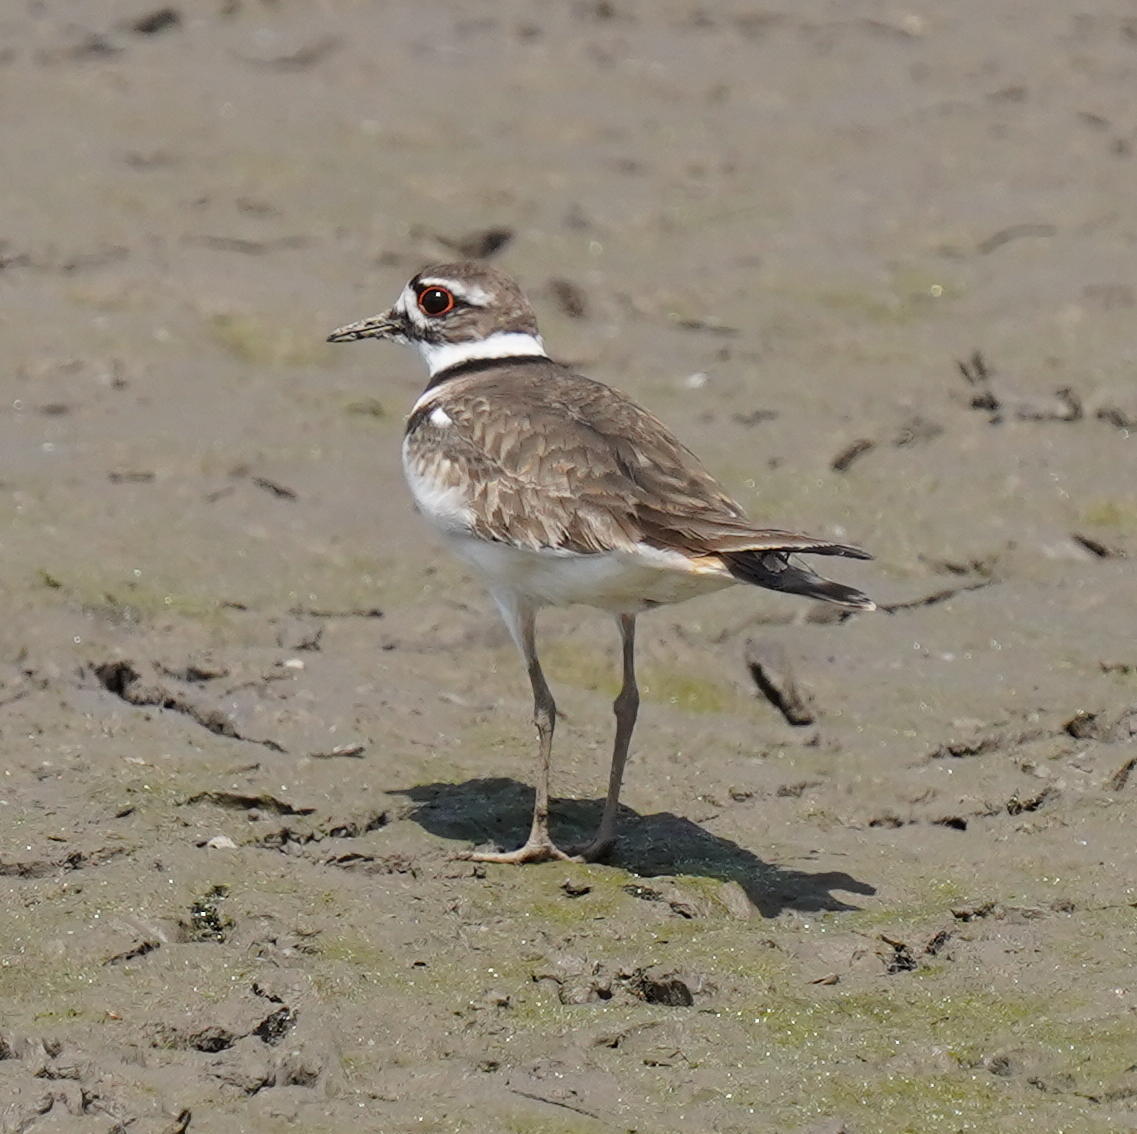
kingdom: Animalia
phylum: Chordata
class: Aves
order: Charadriiformes
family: Charadriidae
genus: Charadrius
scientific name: Charadrius vociferus
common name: Killdeer
